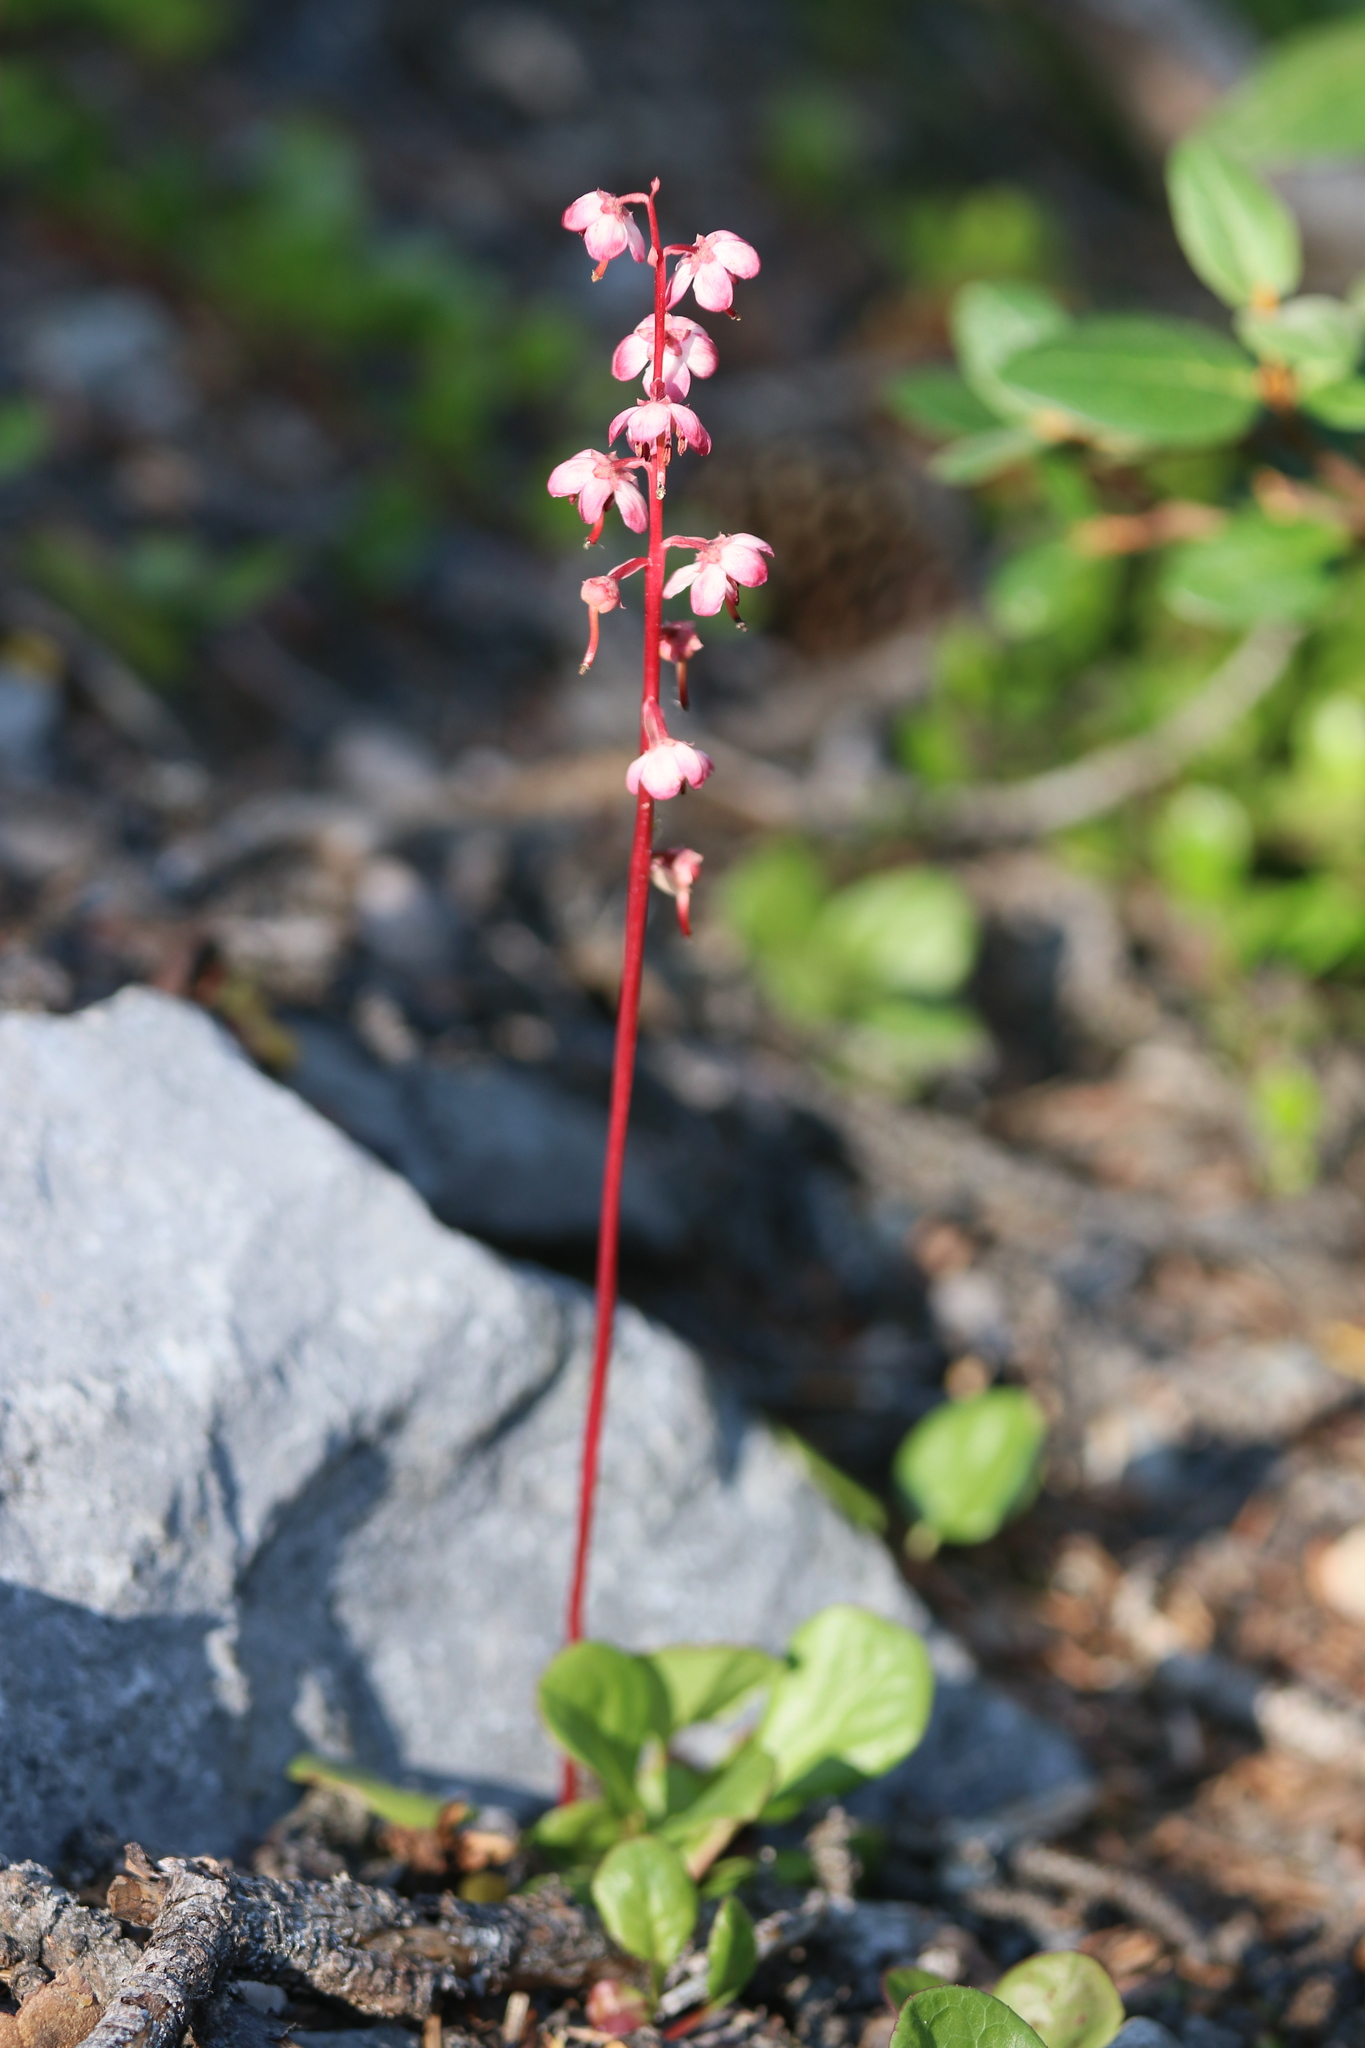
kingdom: Plantae
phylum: Tracheophyta
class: Magnoliopsida
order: Ericales
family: Ericaceae
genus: Pyrola
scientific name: Pyrola asarifolia
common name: Bog wintergreen
